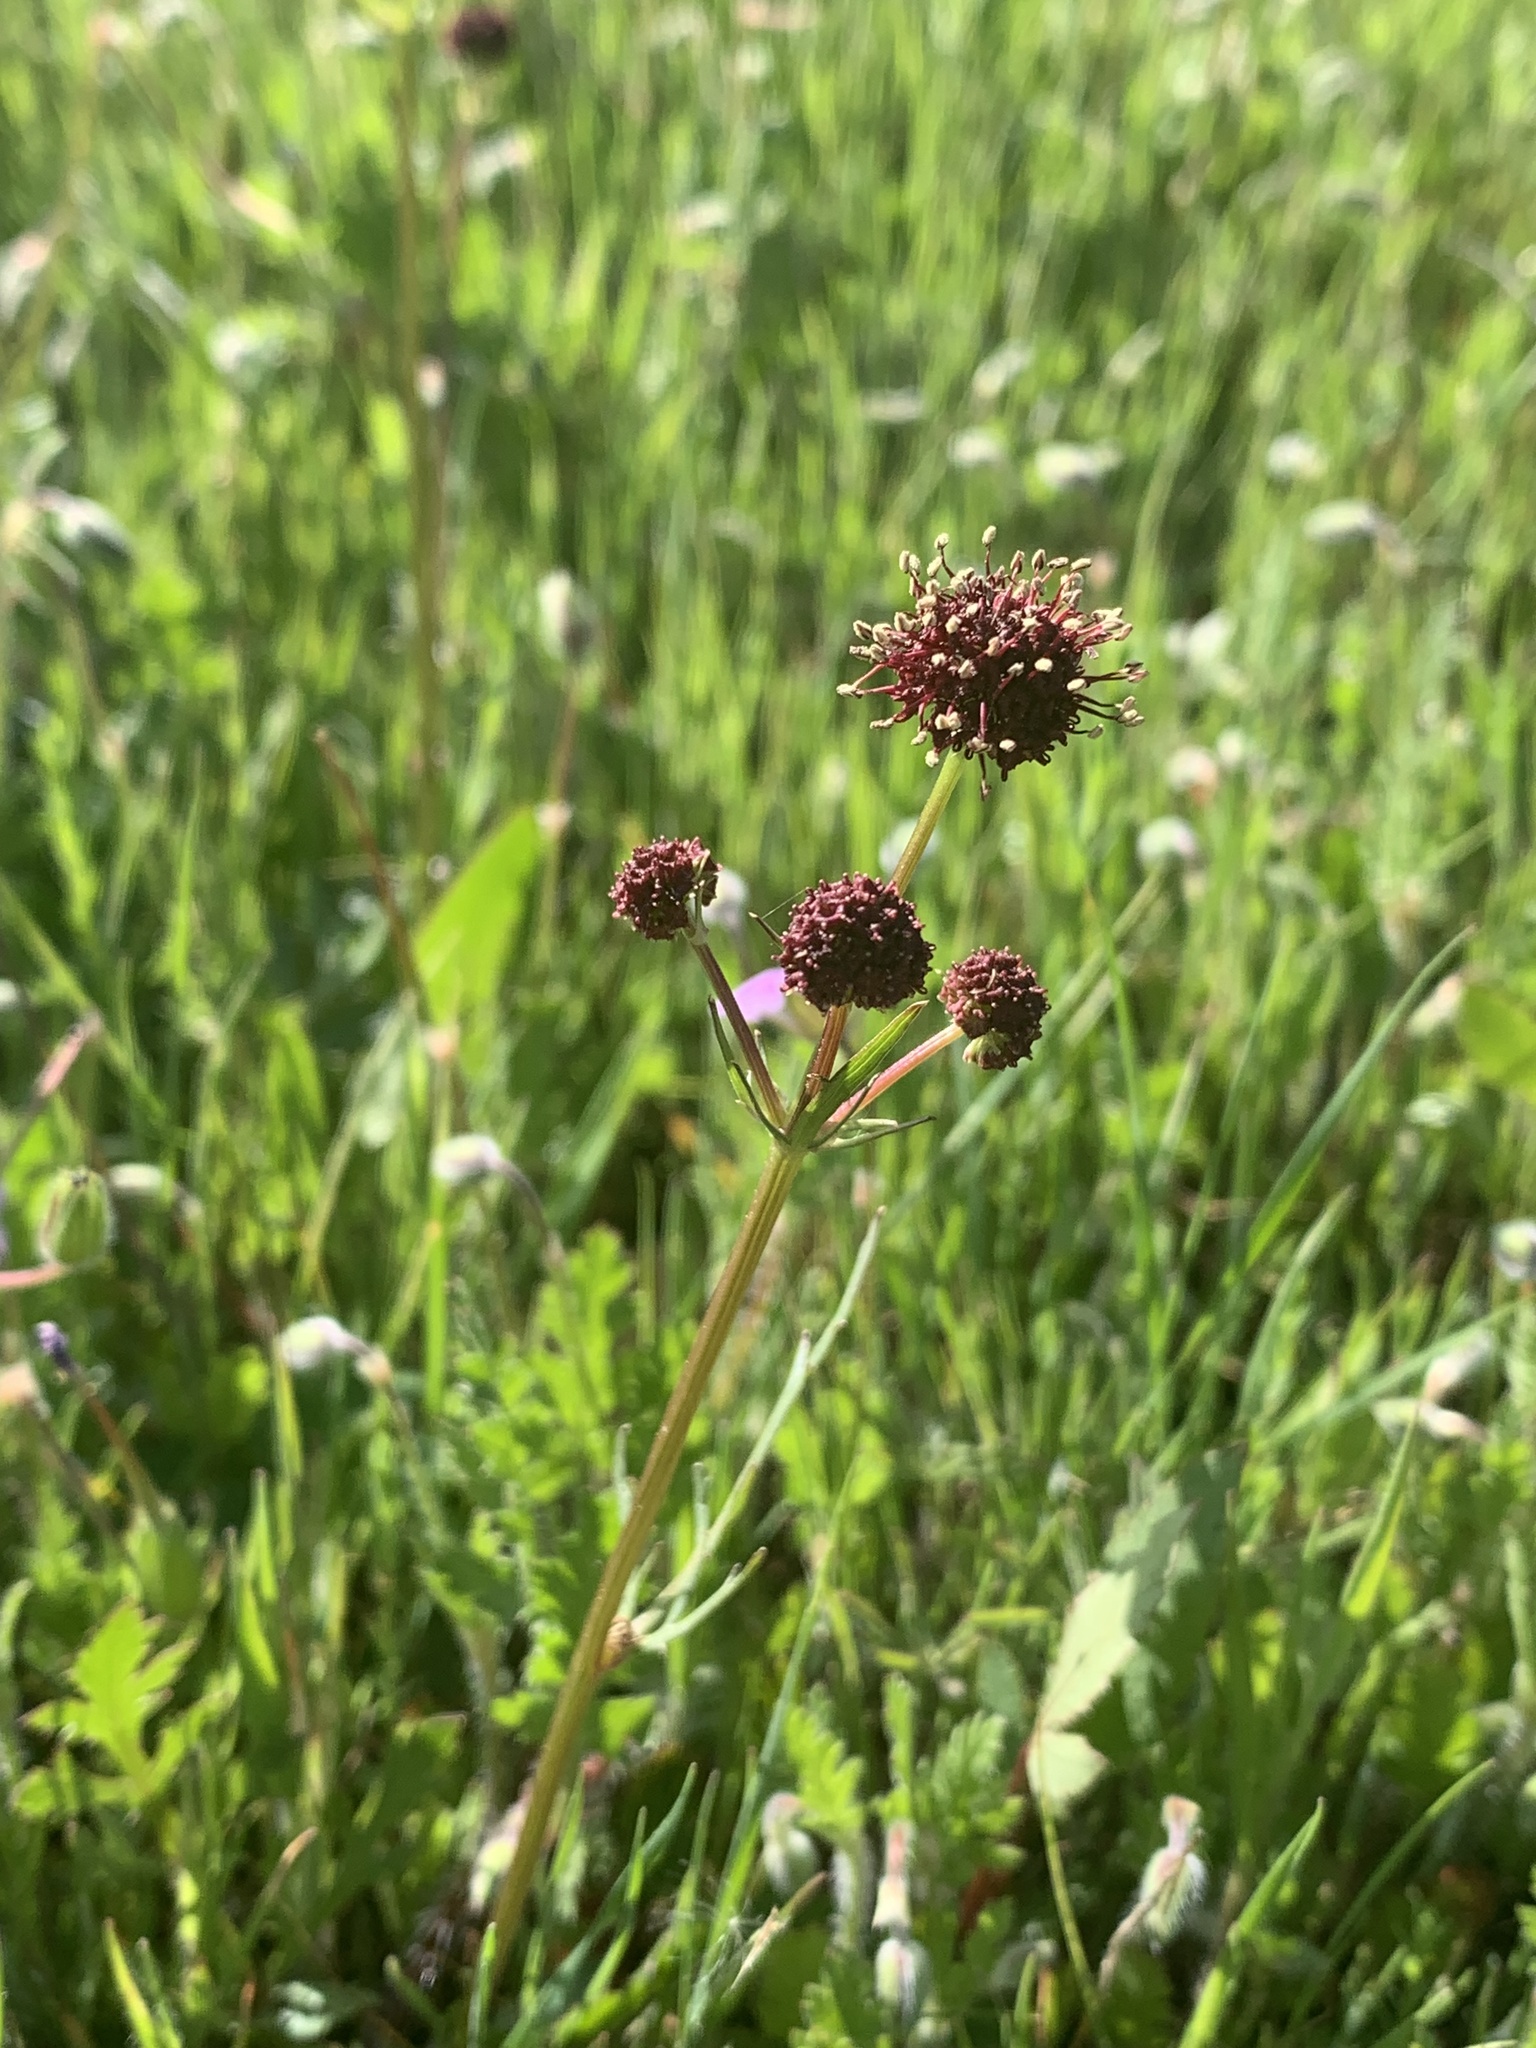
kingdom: Plantae
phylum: Tracheophyta
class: Magnoliopsida
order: Apiales
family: Apiaceae
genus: Sanicula
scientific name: Sanicula bipinnatifida
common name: Shoe-buttons
